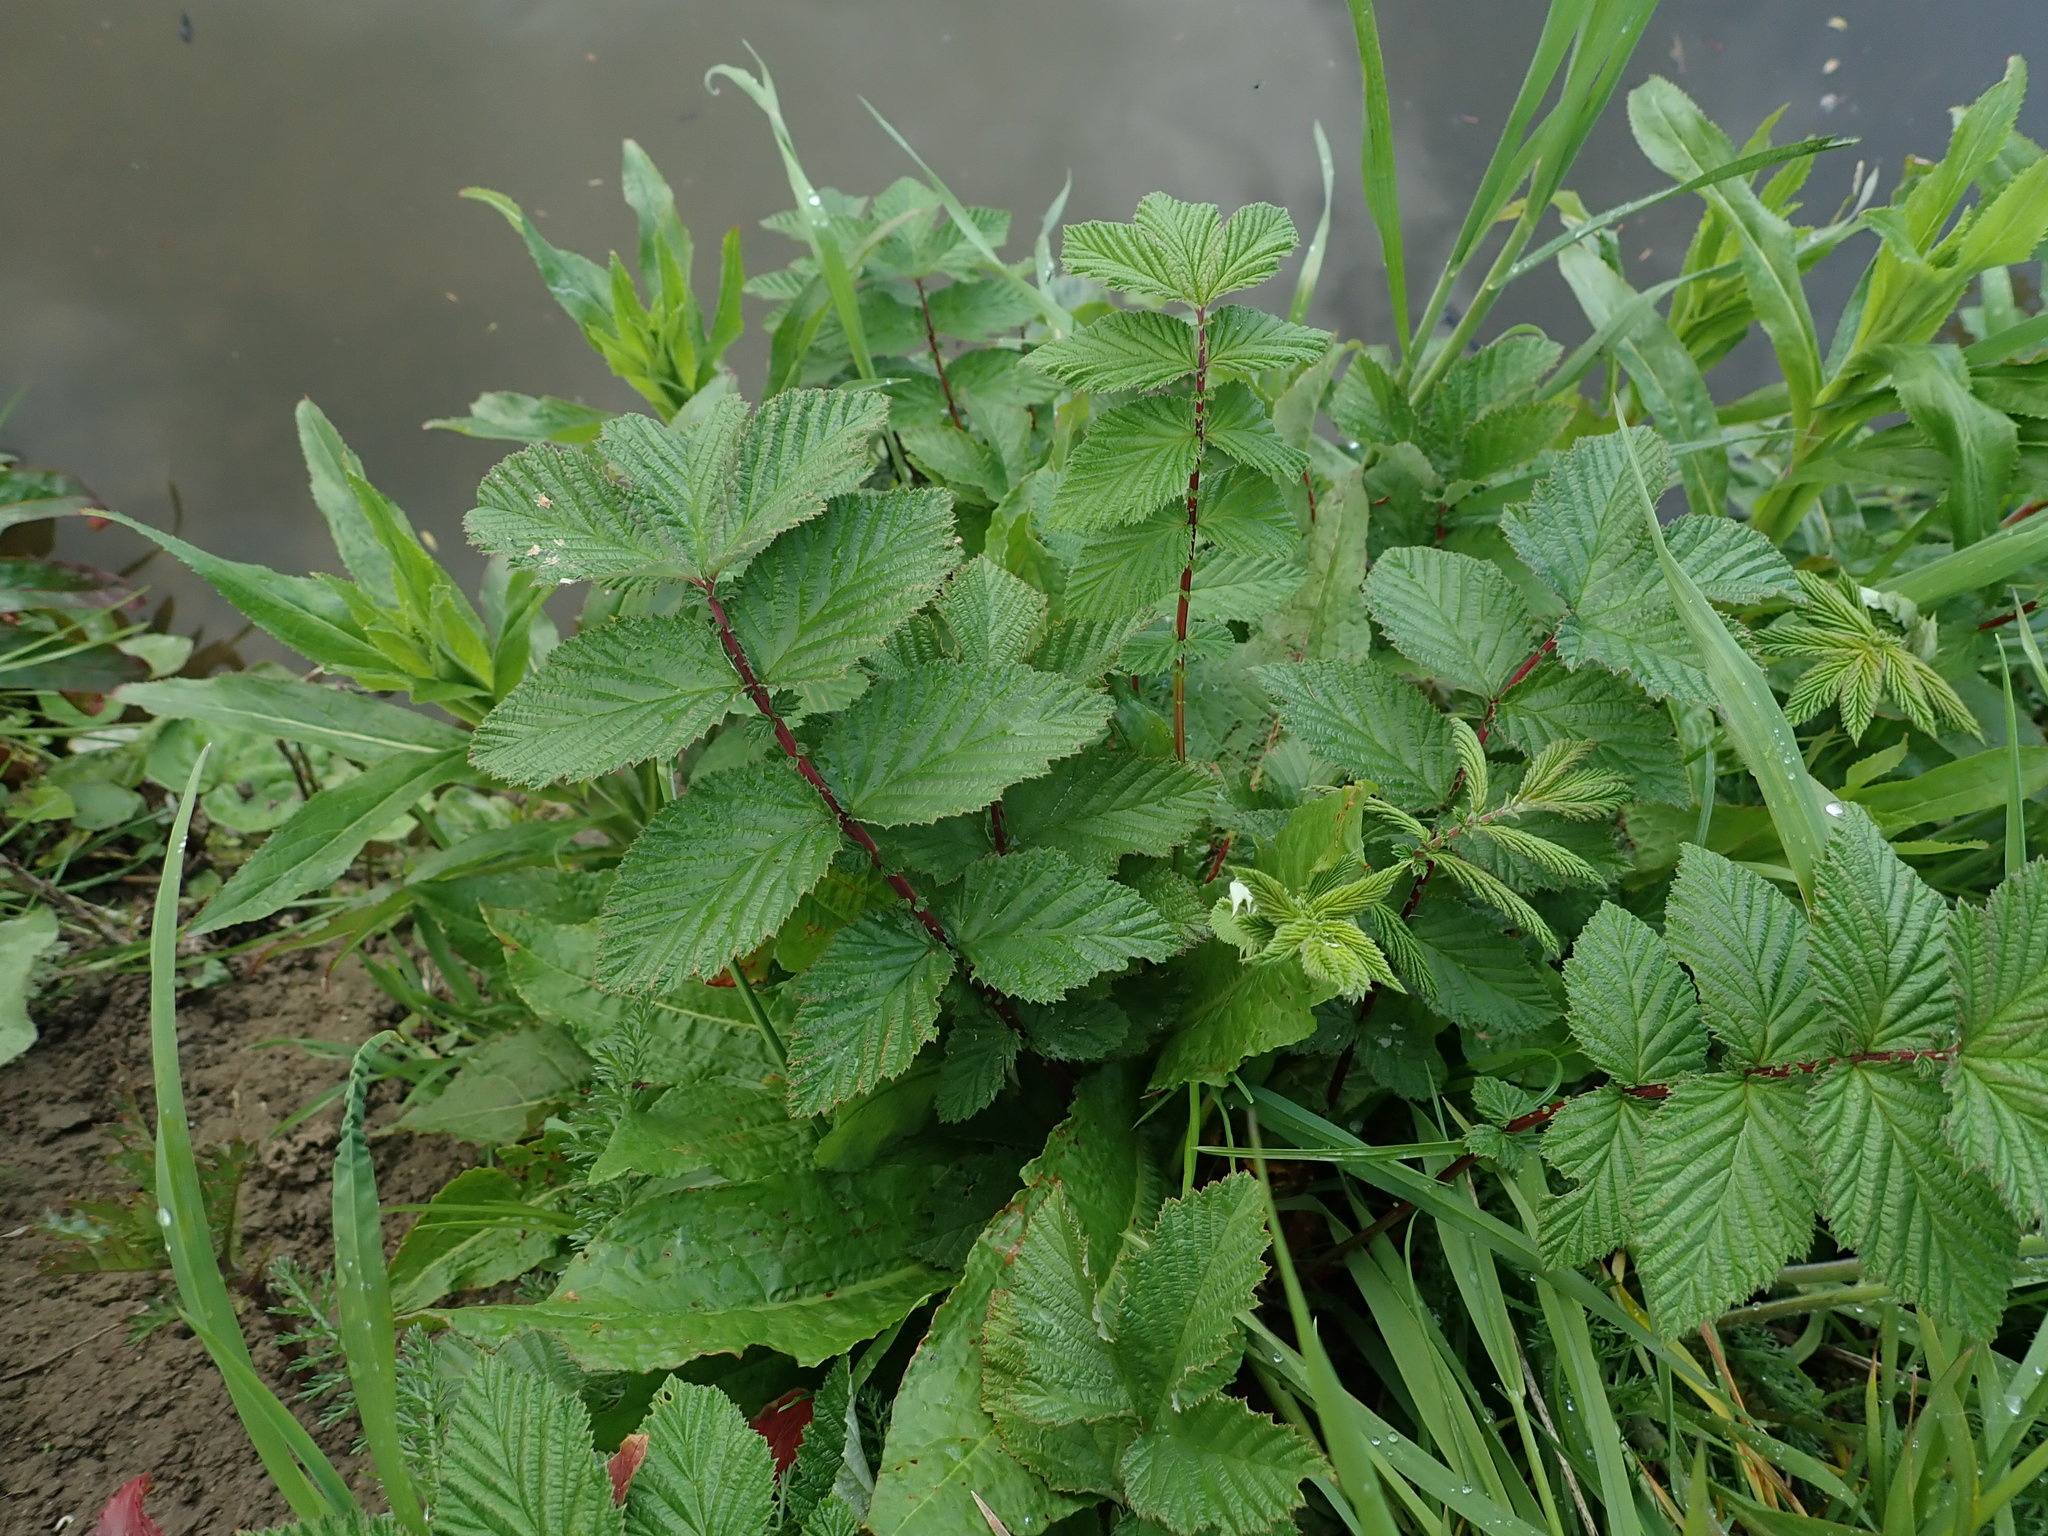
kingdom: Plantae
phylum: Tracheophyta
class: Magnoliopsida
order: Rosales
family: Rosaceae
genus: Filipendula
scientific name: Filipendula ulmaria
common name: Meadowsweet
